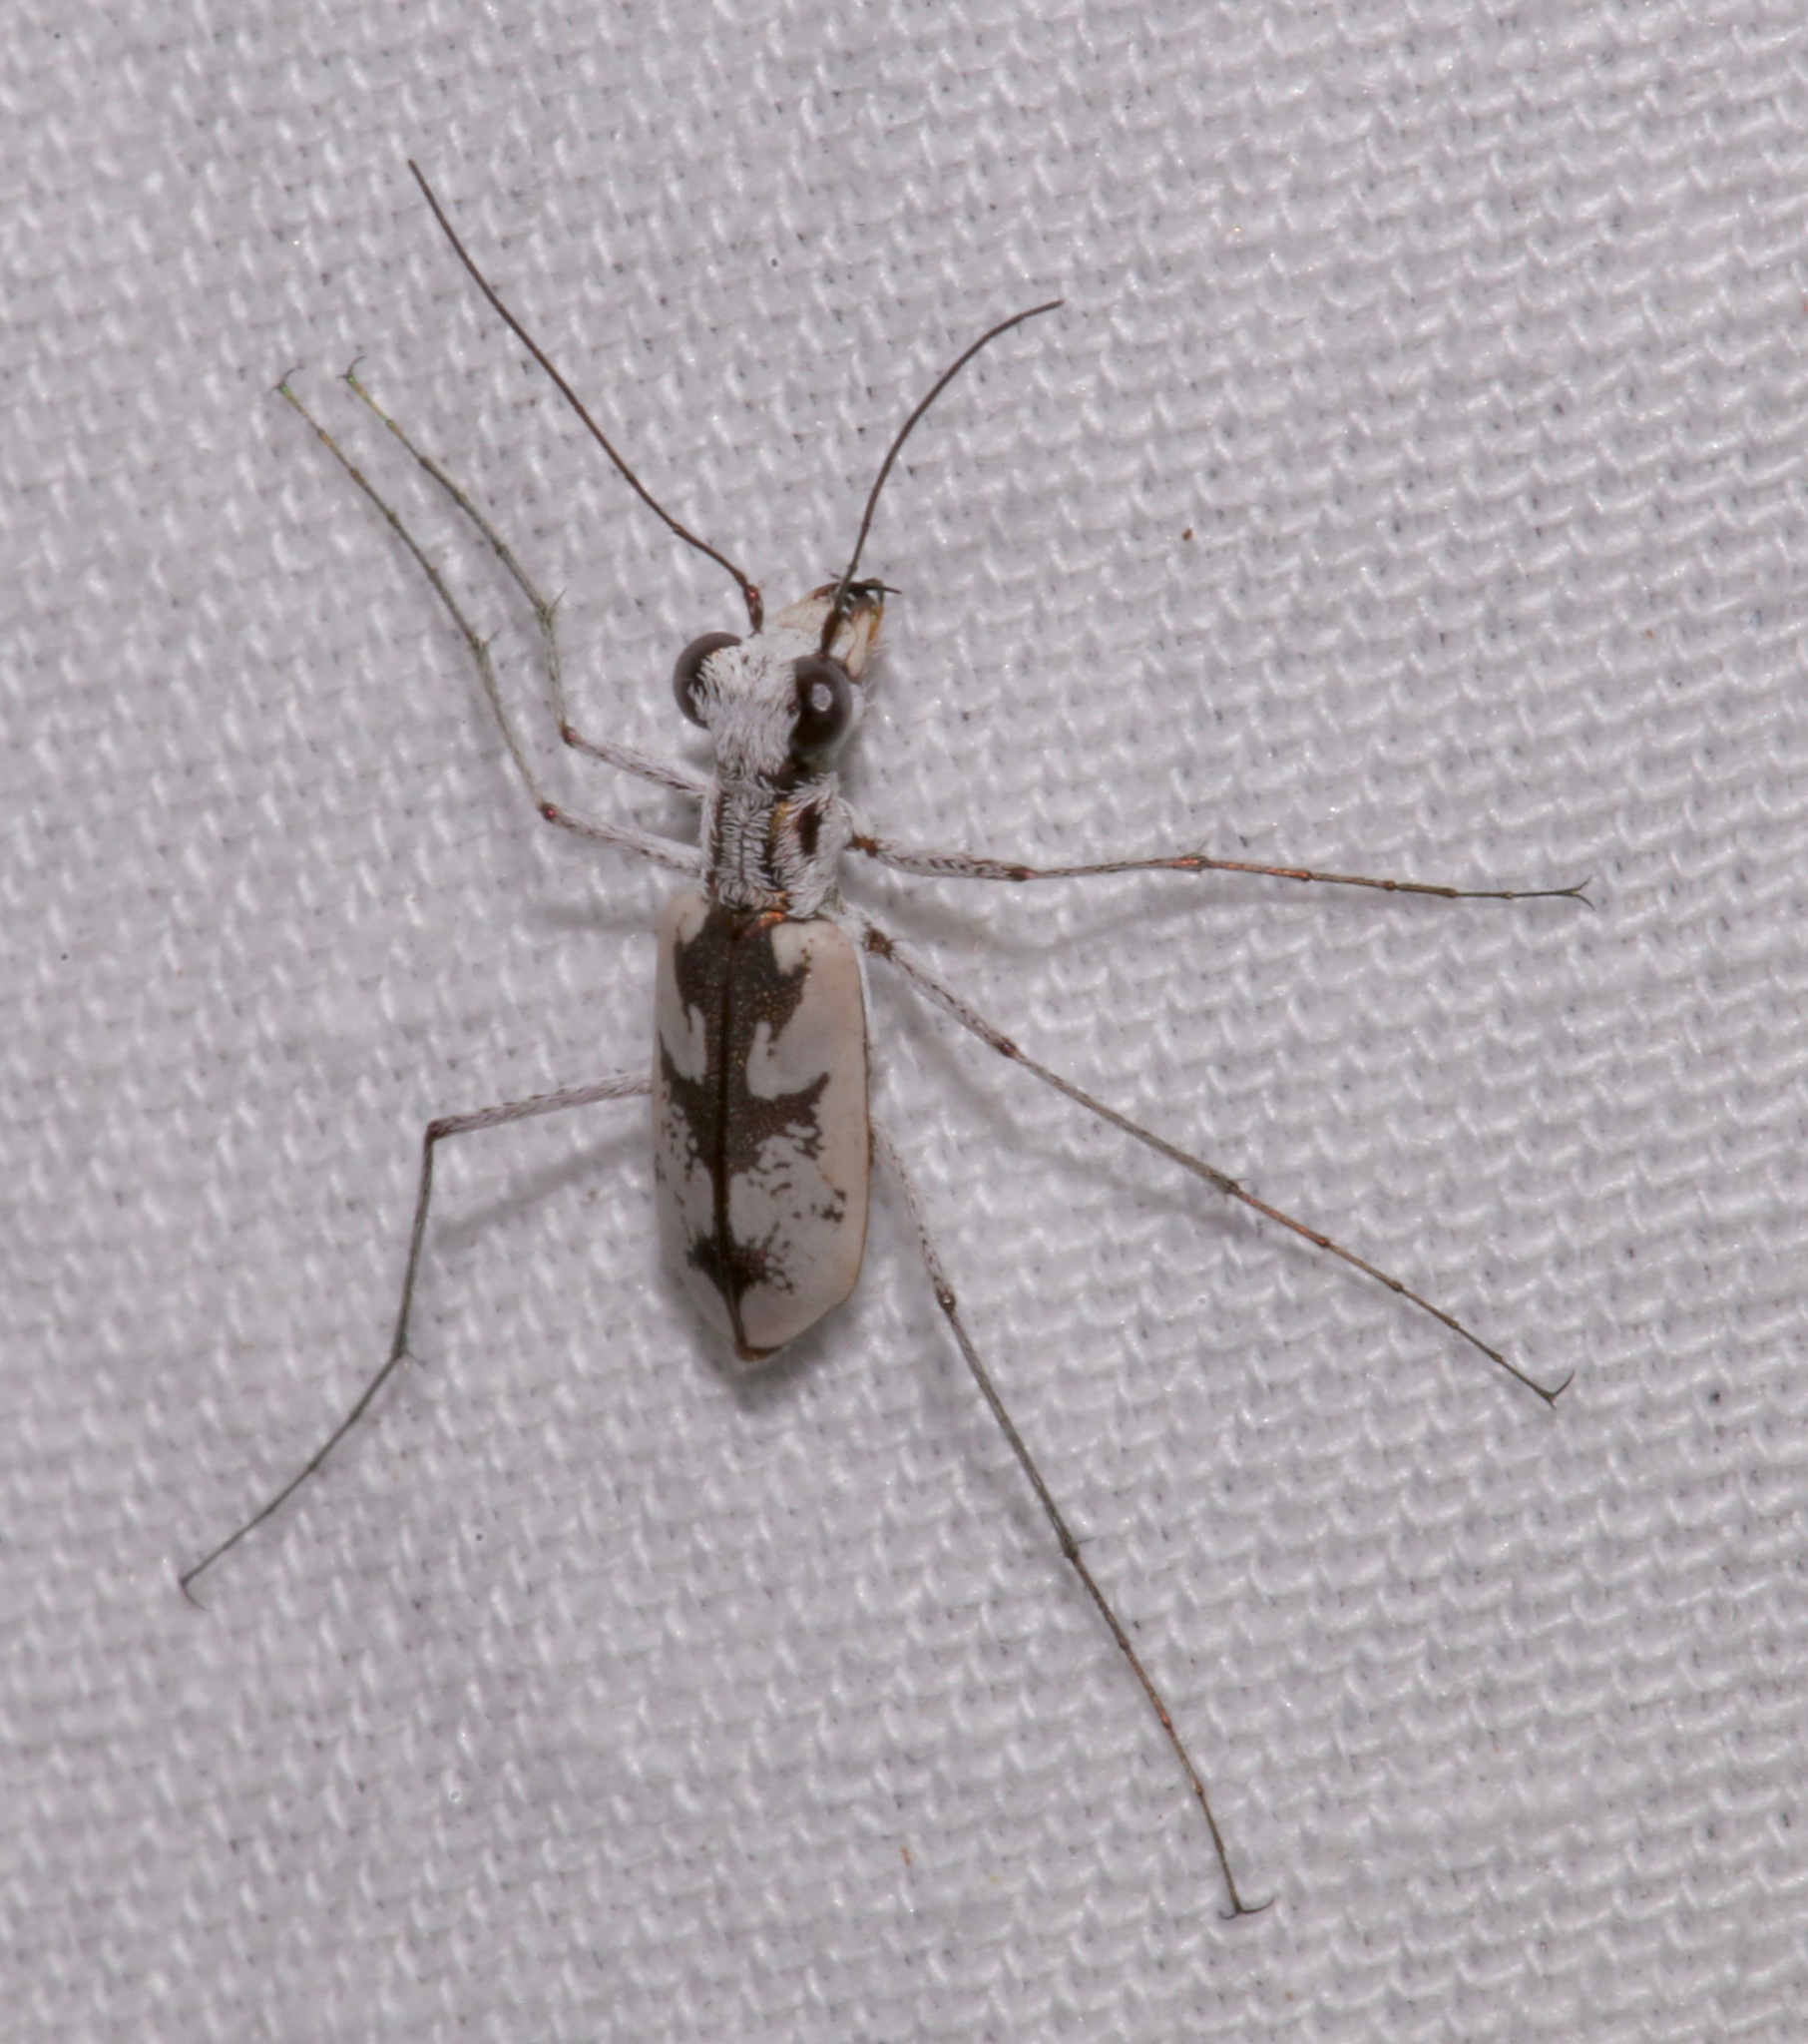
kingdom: Animalia
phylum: Arthropoda
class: Insecta
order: Coleoptera
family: Carabidae
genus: Ellipsoptera
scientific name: Ellipsoptera hirtilabris
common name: Moustached tiger beetle
